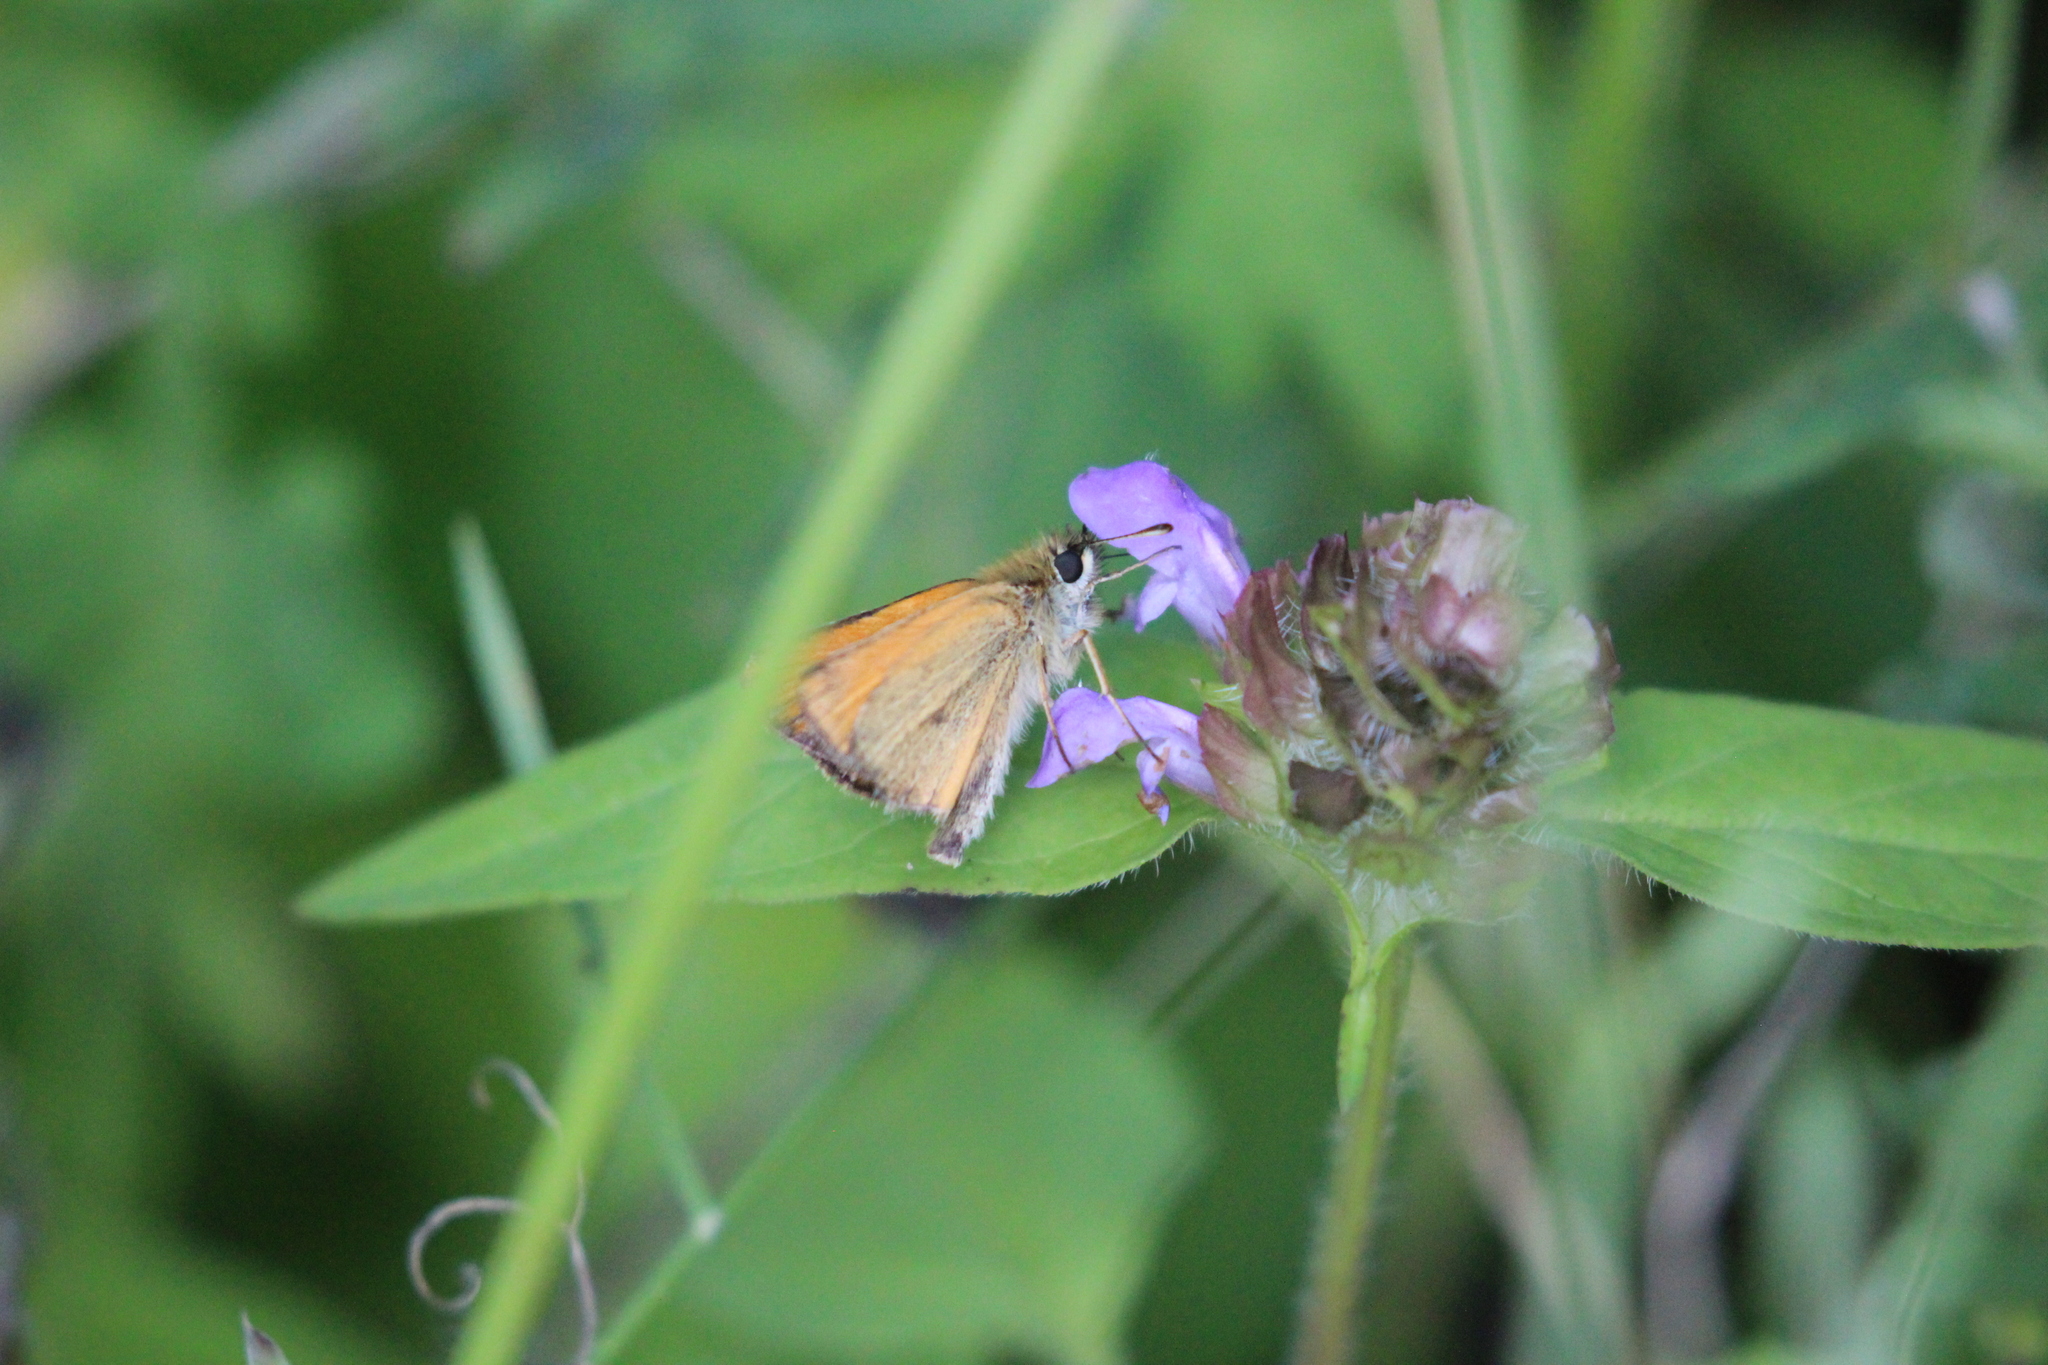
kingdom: Animalia
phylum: Arthropoda
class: Insecta
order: Lepidoptera
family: Hesperiidae
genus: Thymelicus
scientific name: Thymelicus lineola
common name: Essex skipper
